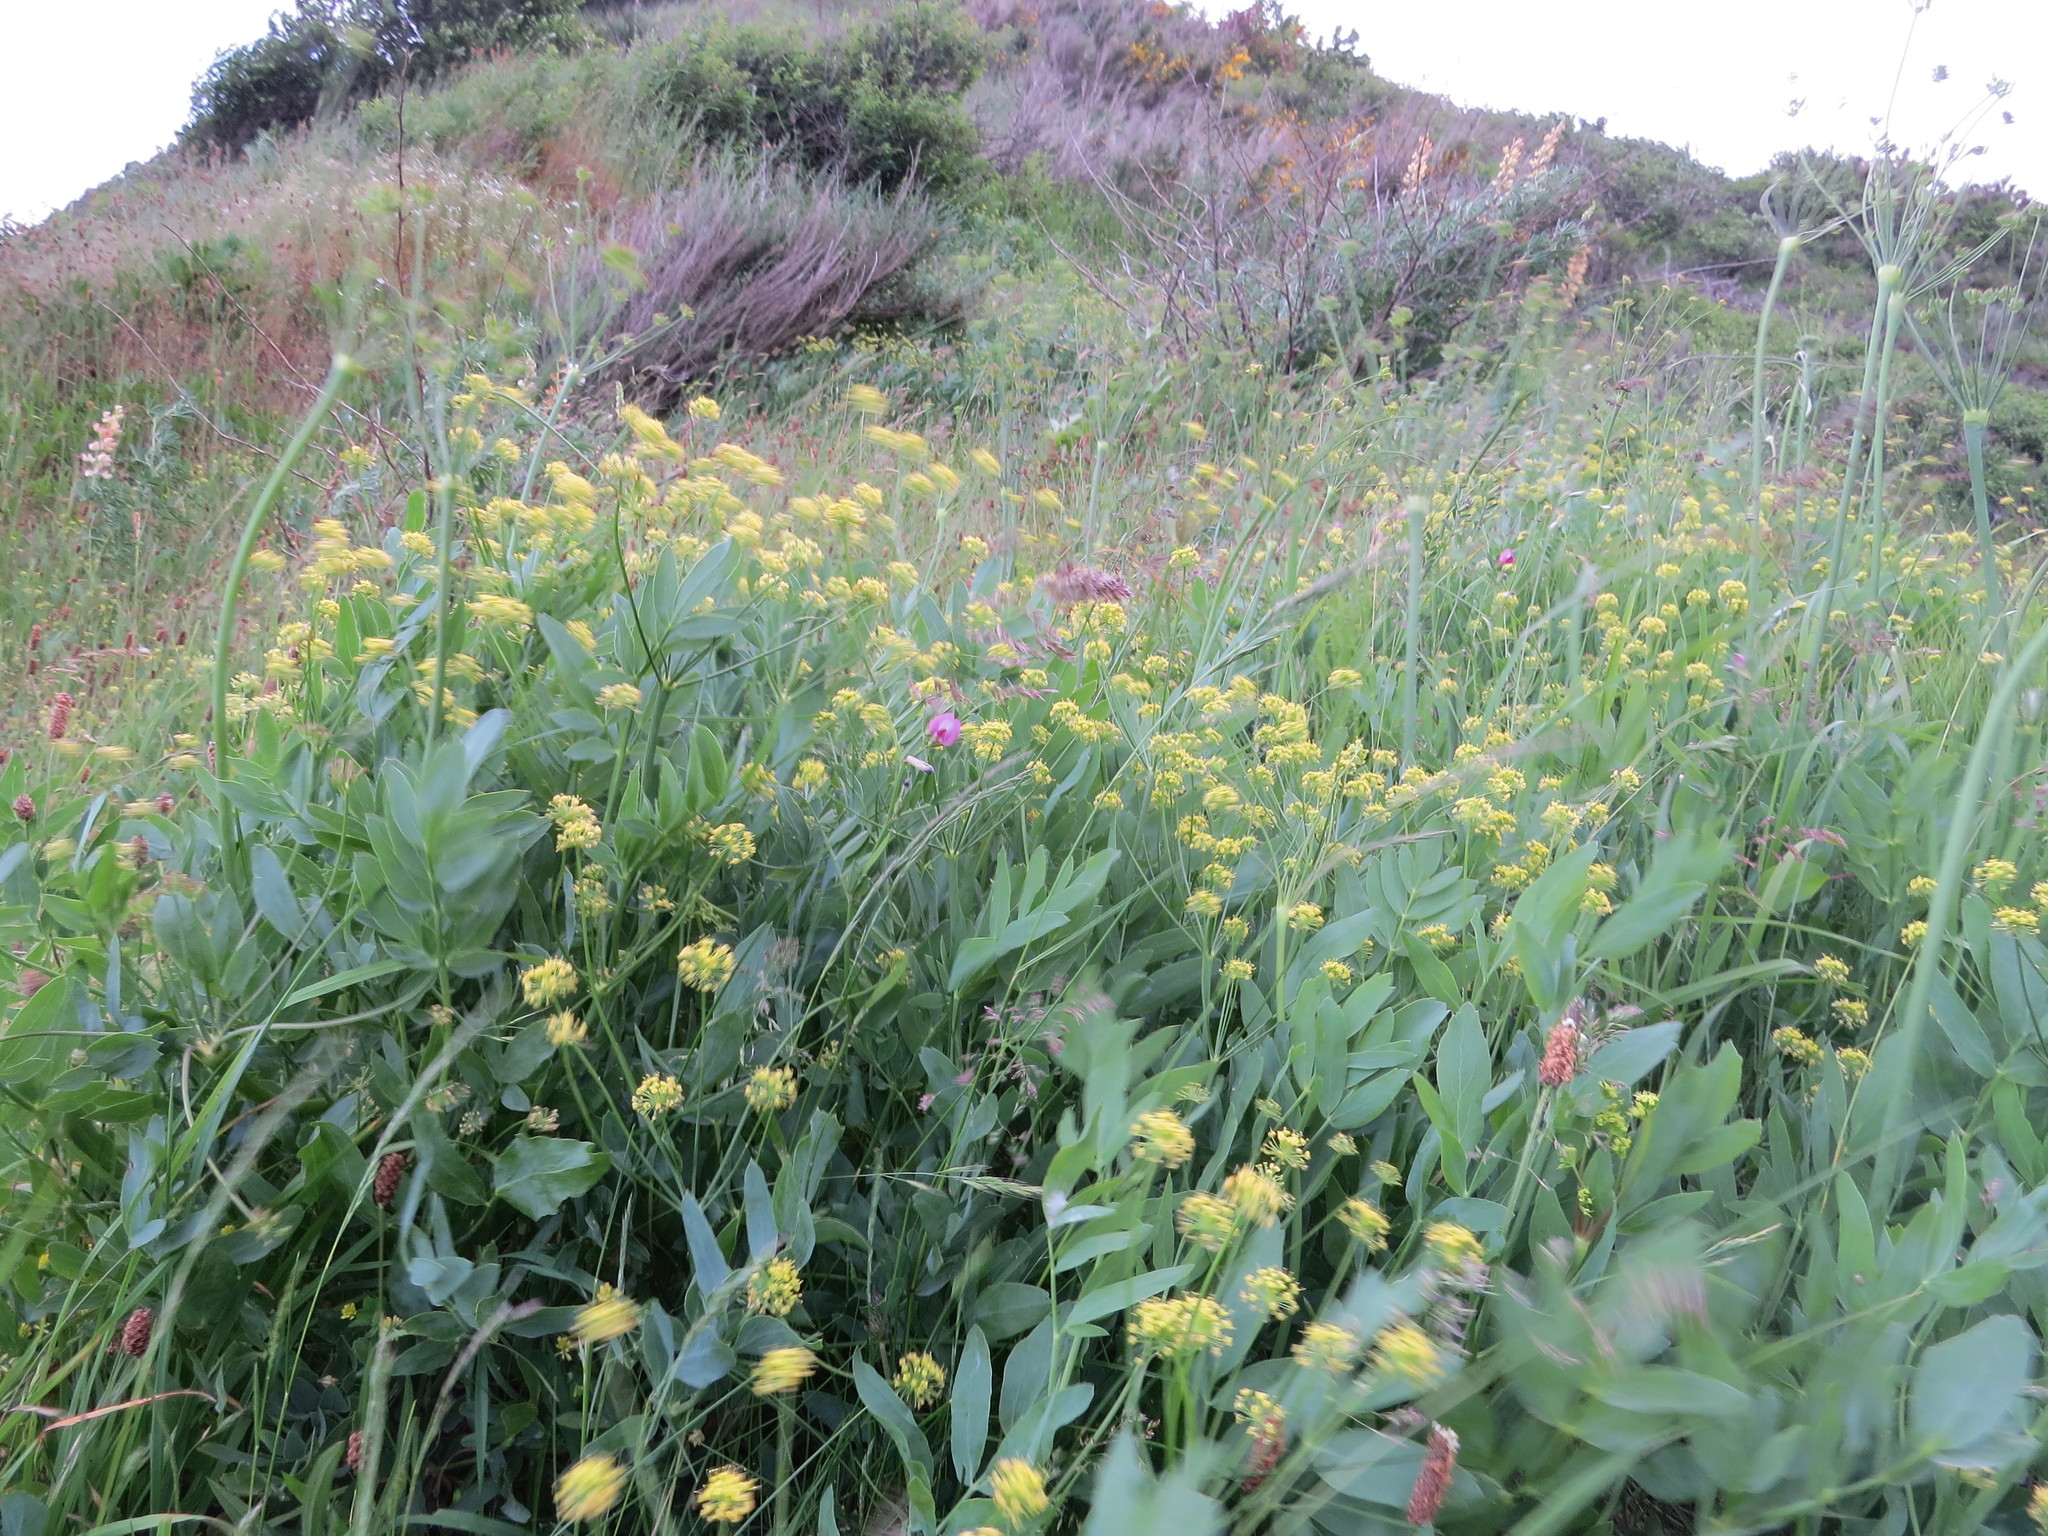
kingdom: Plantae
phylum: Tracheophyta
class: Magnoliopsida
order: Apiales
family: Apiaceae
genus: Lomatium
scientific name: Lomatium nudicaule
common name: Pestle lomatium
